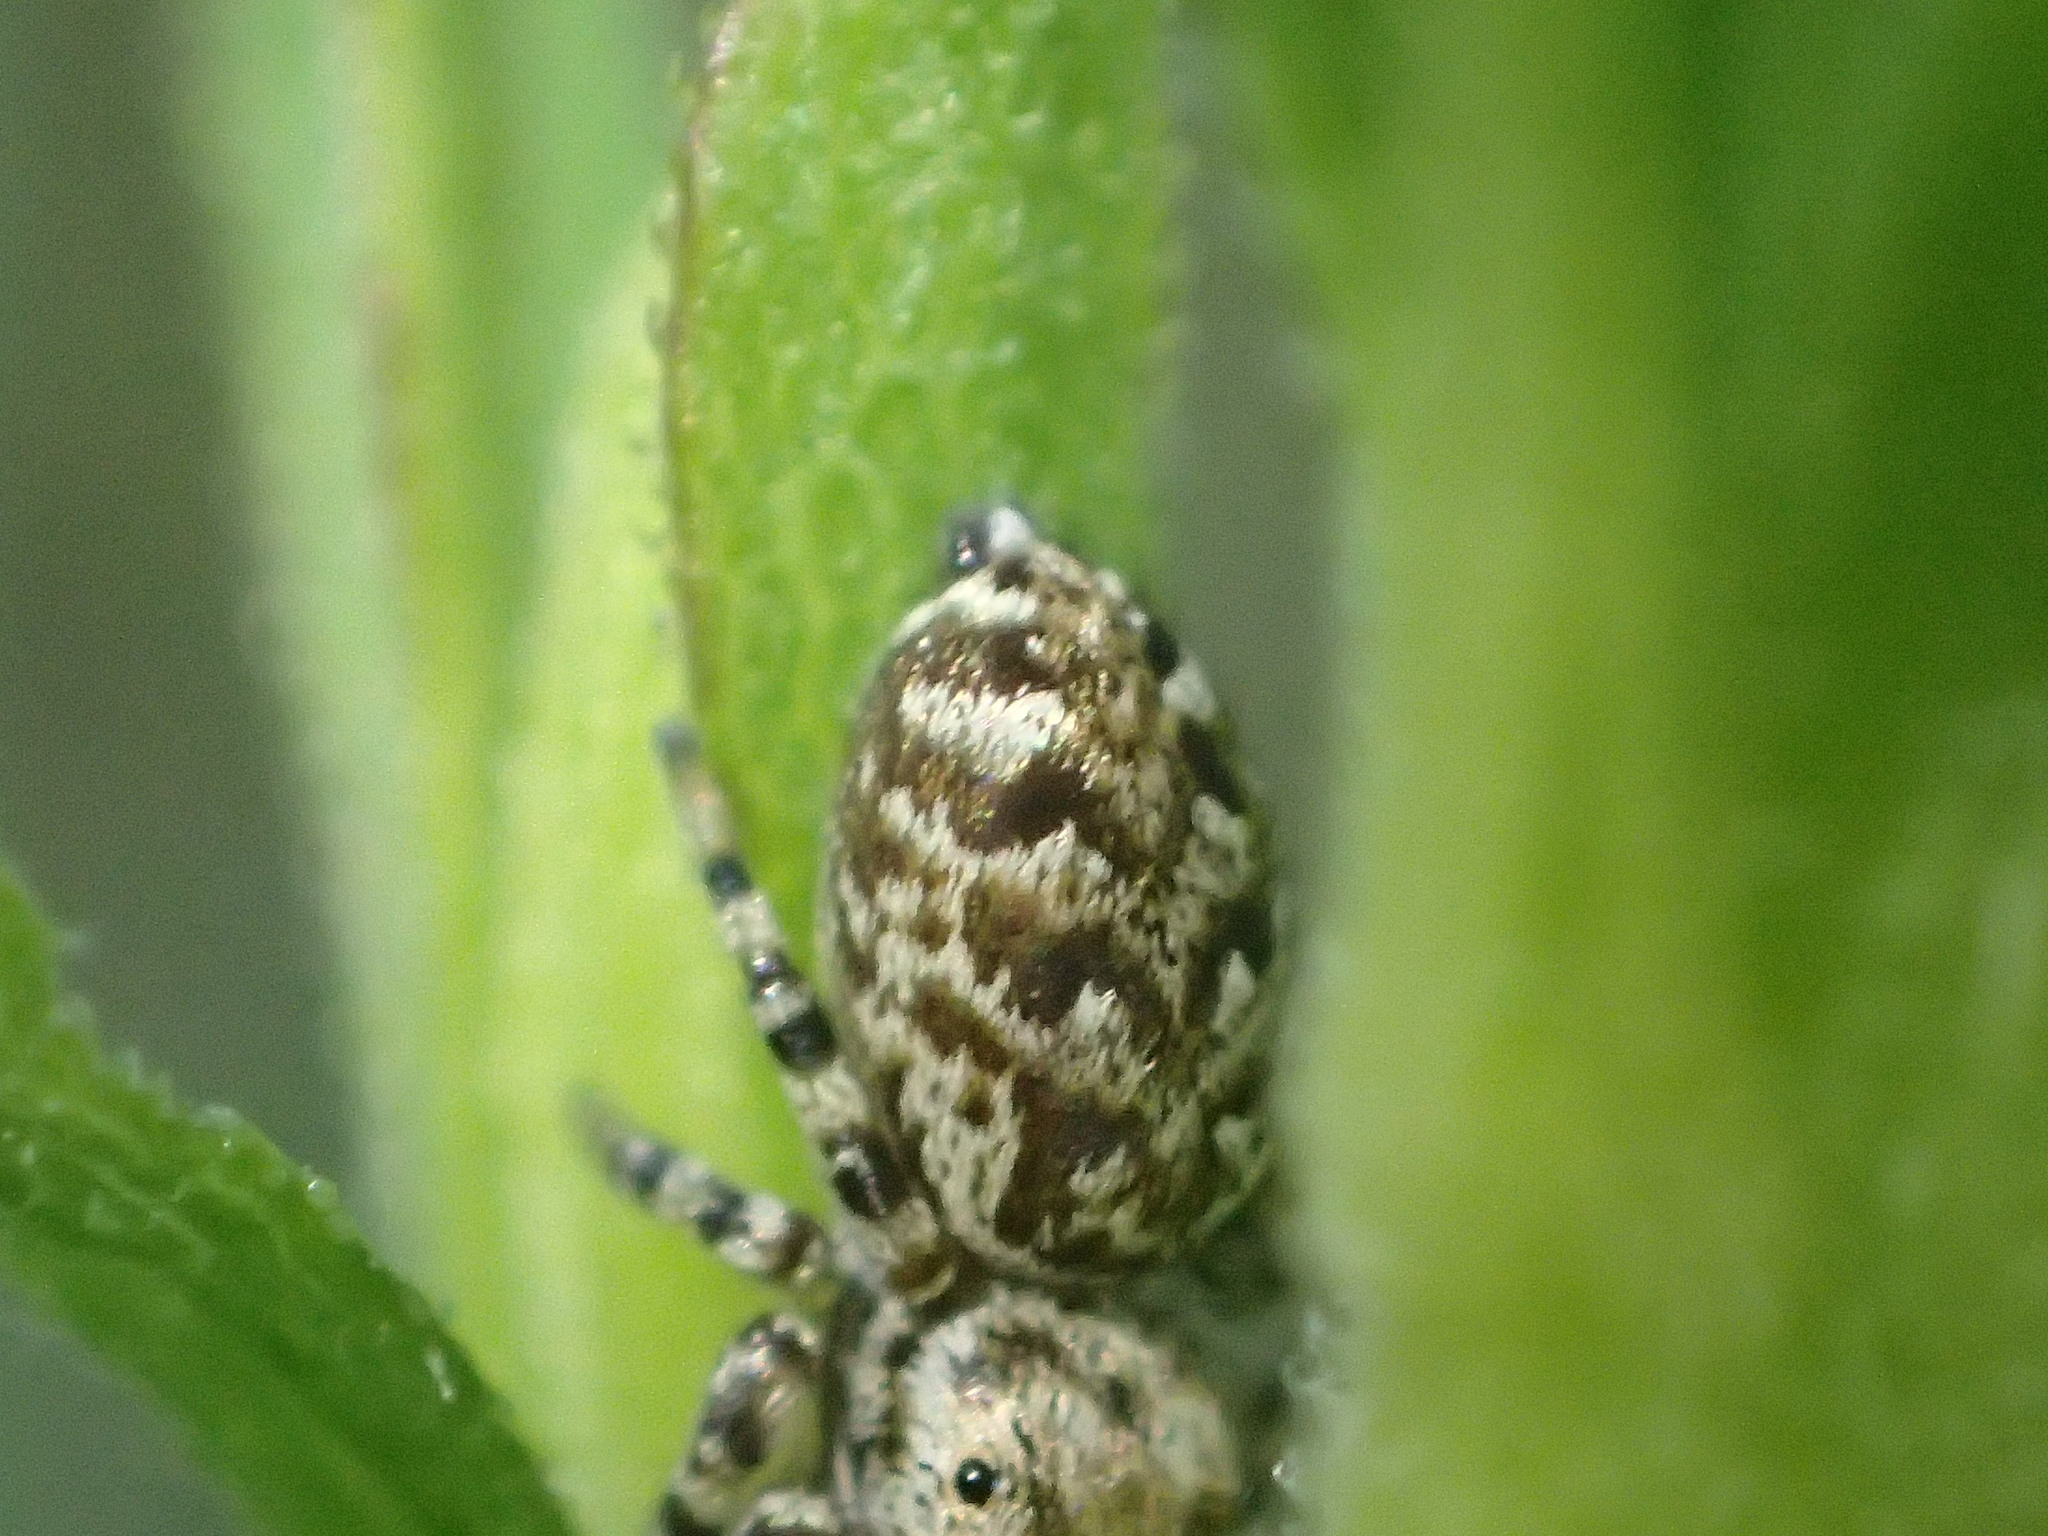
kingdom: Animalia
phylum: Arthropoda
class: Arachnida
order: Araneae
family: Salticidae
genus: Pelegrina
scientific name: Pelegrina galathea
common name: Jumping spiders
